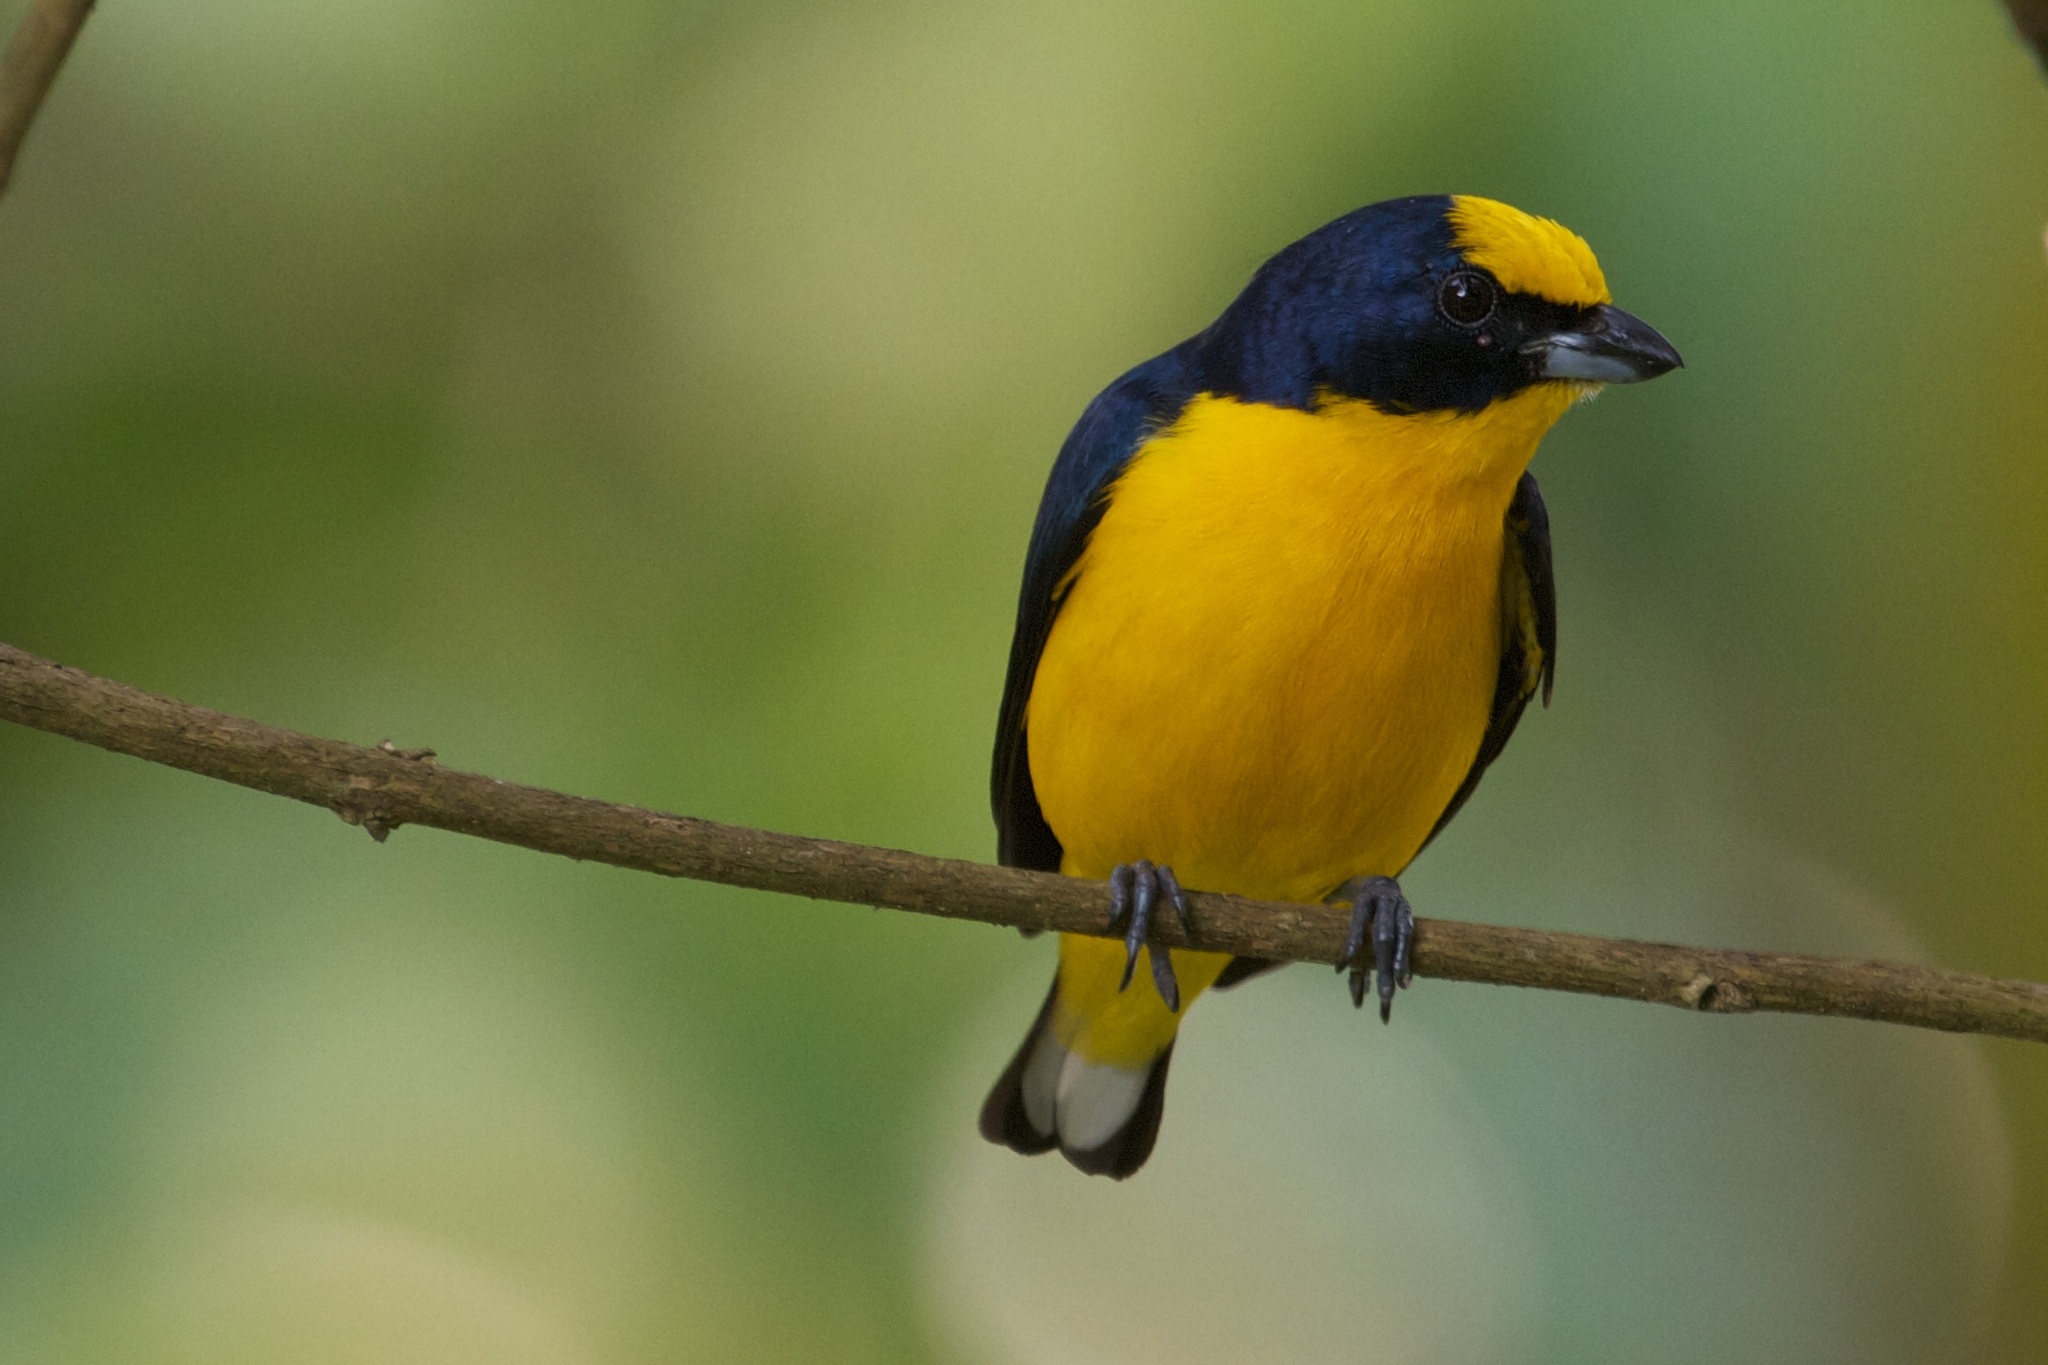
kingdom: Animalia
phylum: Chordata
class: Aves
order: Passeriformes
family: Fringillidae
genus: Euphonia
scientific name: Euphonia laniirostris
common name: Thick-billed euphonia
